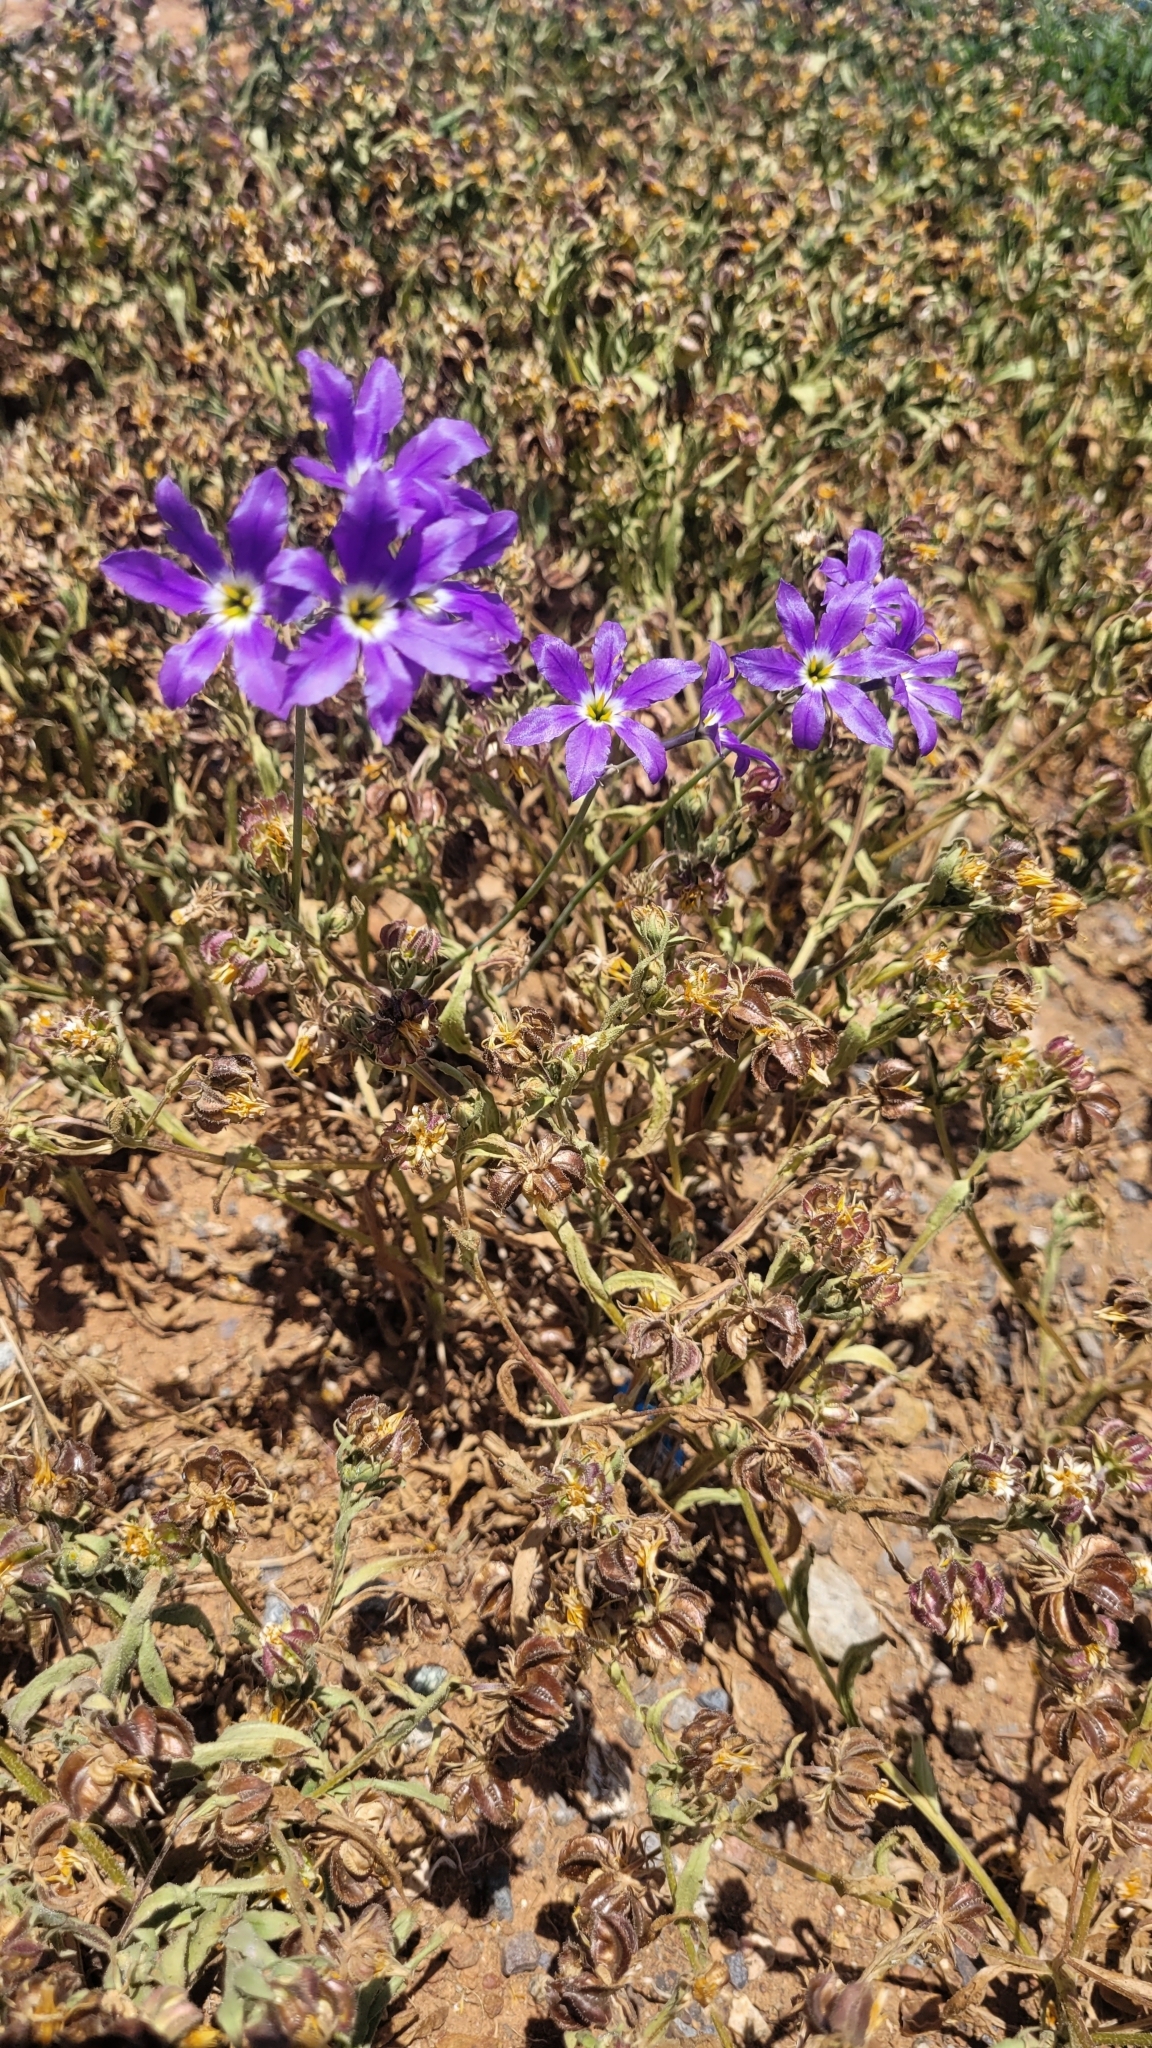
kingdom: Plantae
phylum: Tracheophyta
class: Liliopsida
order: Asparagales
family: Amaryllidaceae
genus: Leucocoryne
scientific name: Leucocoryne coquimbensis
